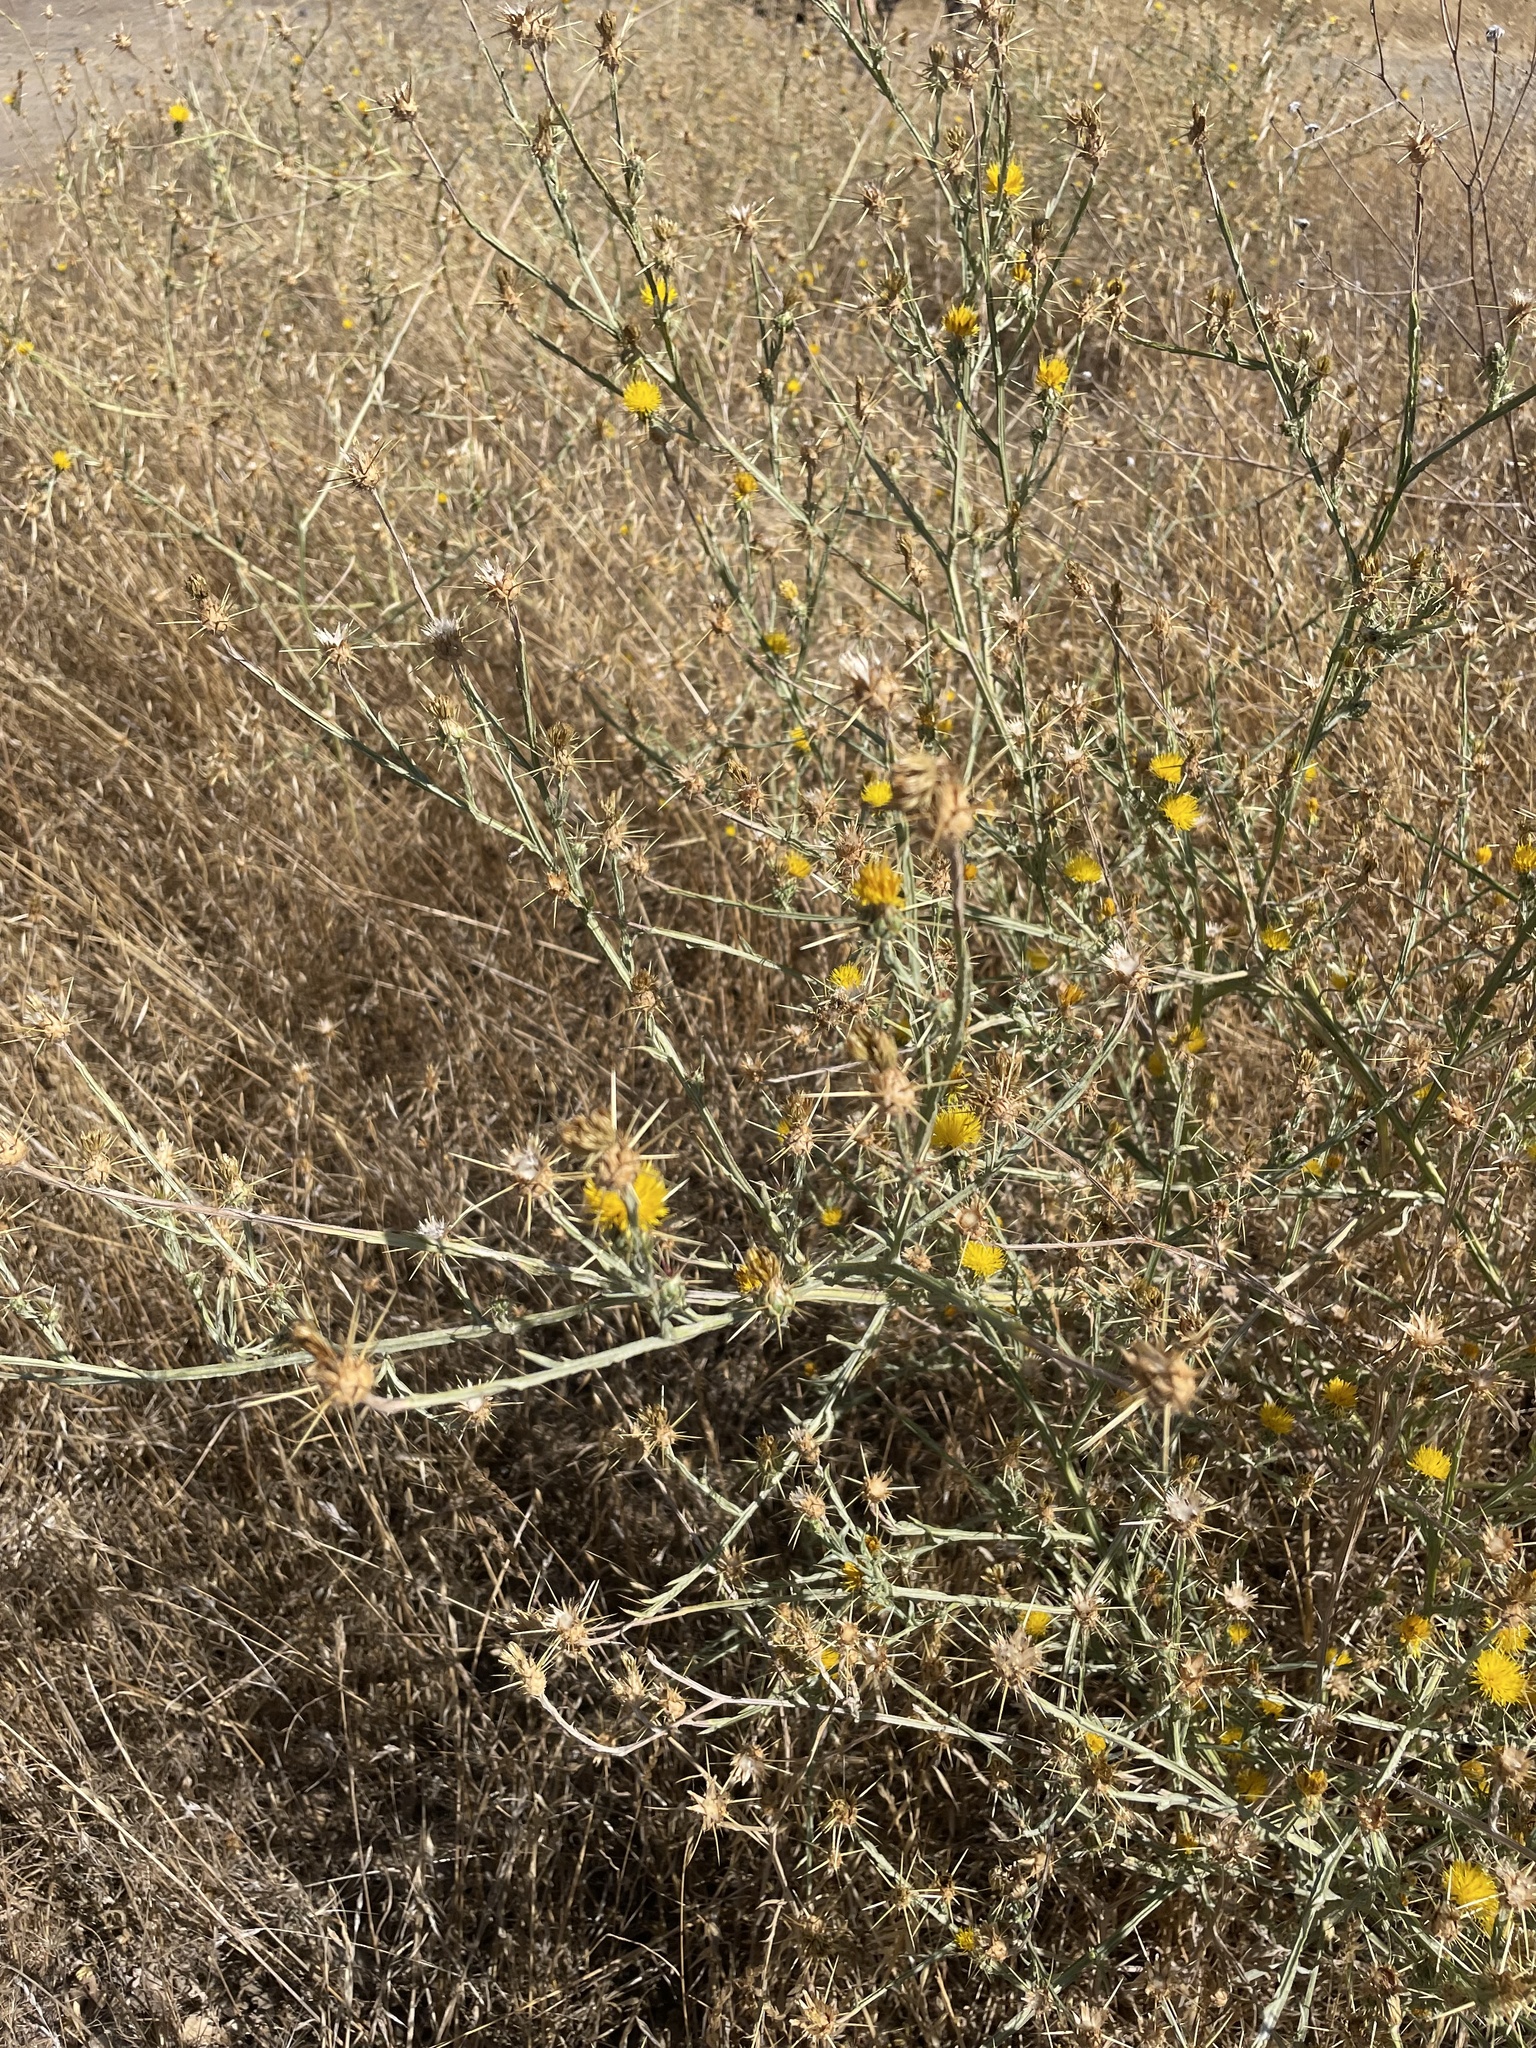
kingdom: Plantae
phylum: Tracheophyta
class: Magnoliopsida
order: Asterales
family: Asteraceae
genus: Centaurea
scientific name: Centaurea solstitialis
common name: Yellow star-thistle
